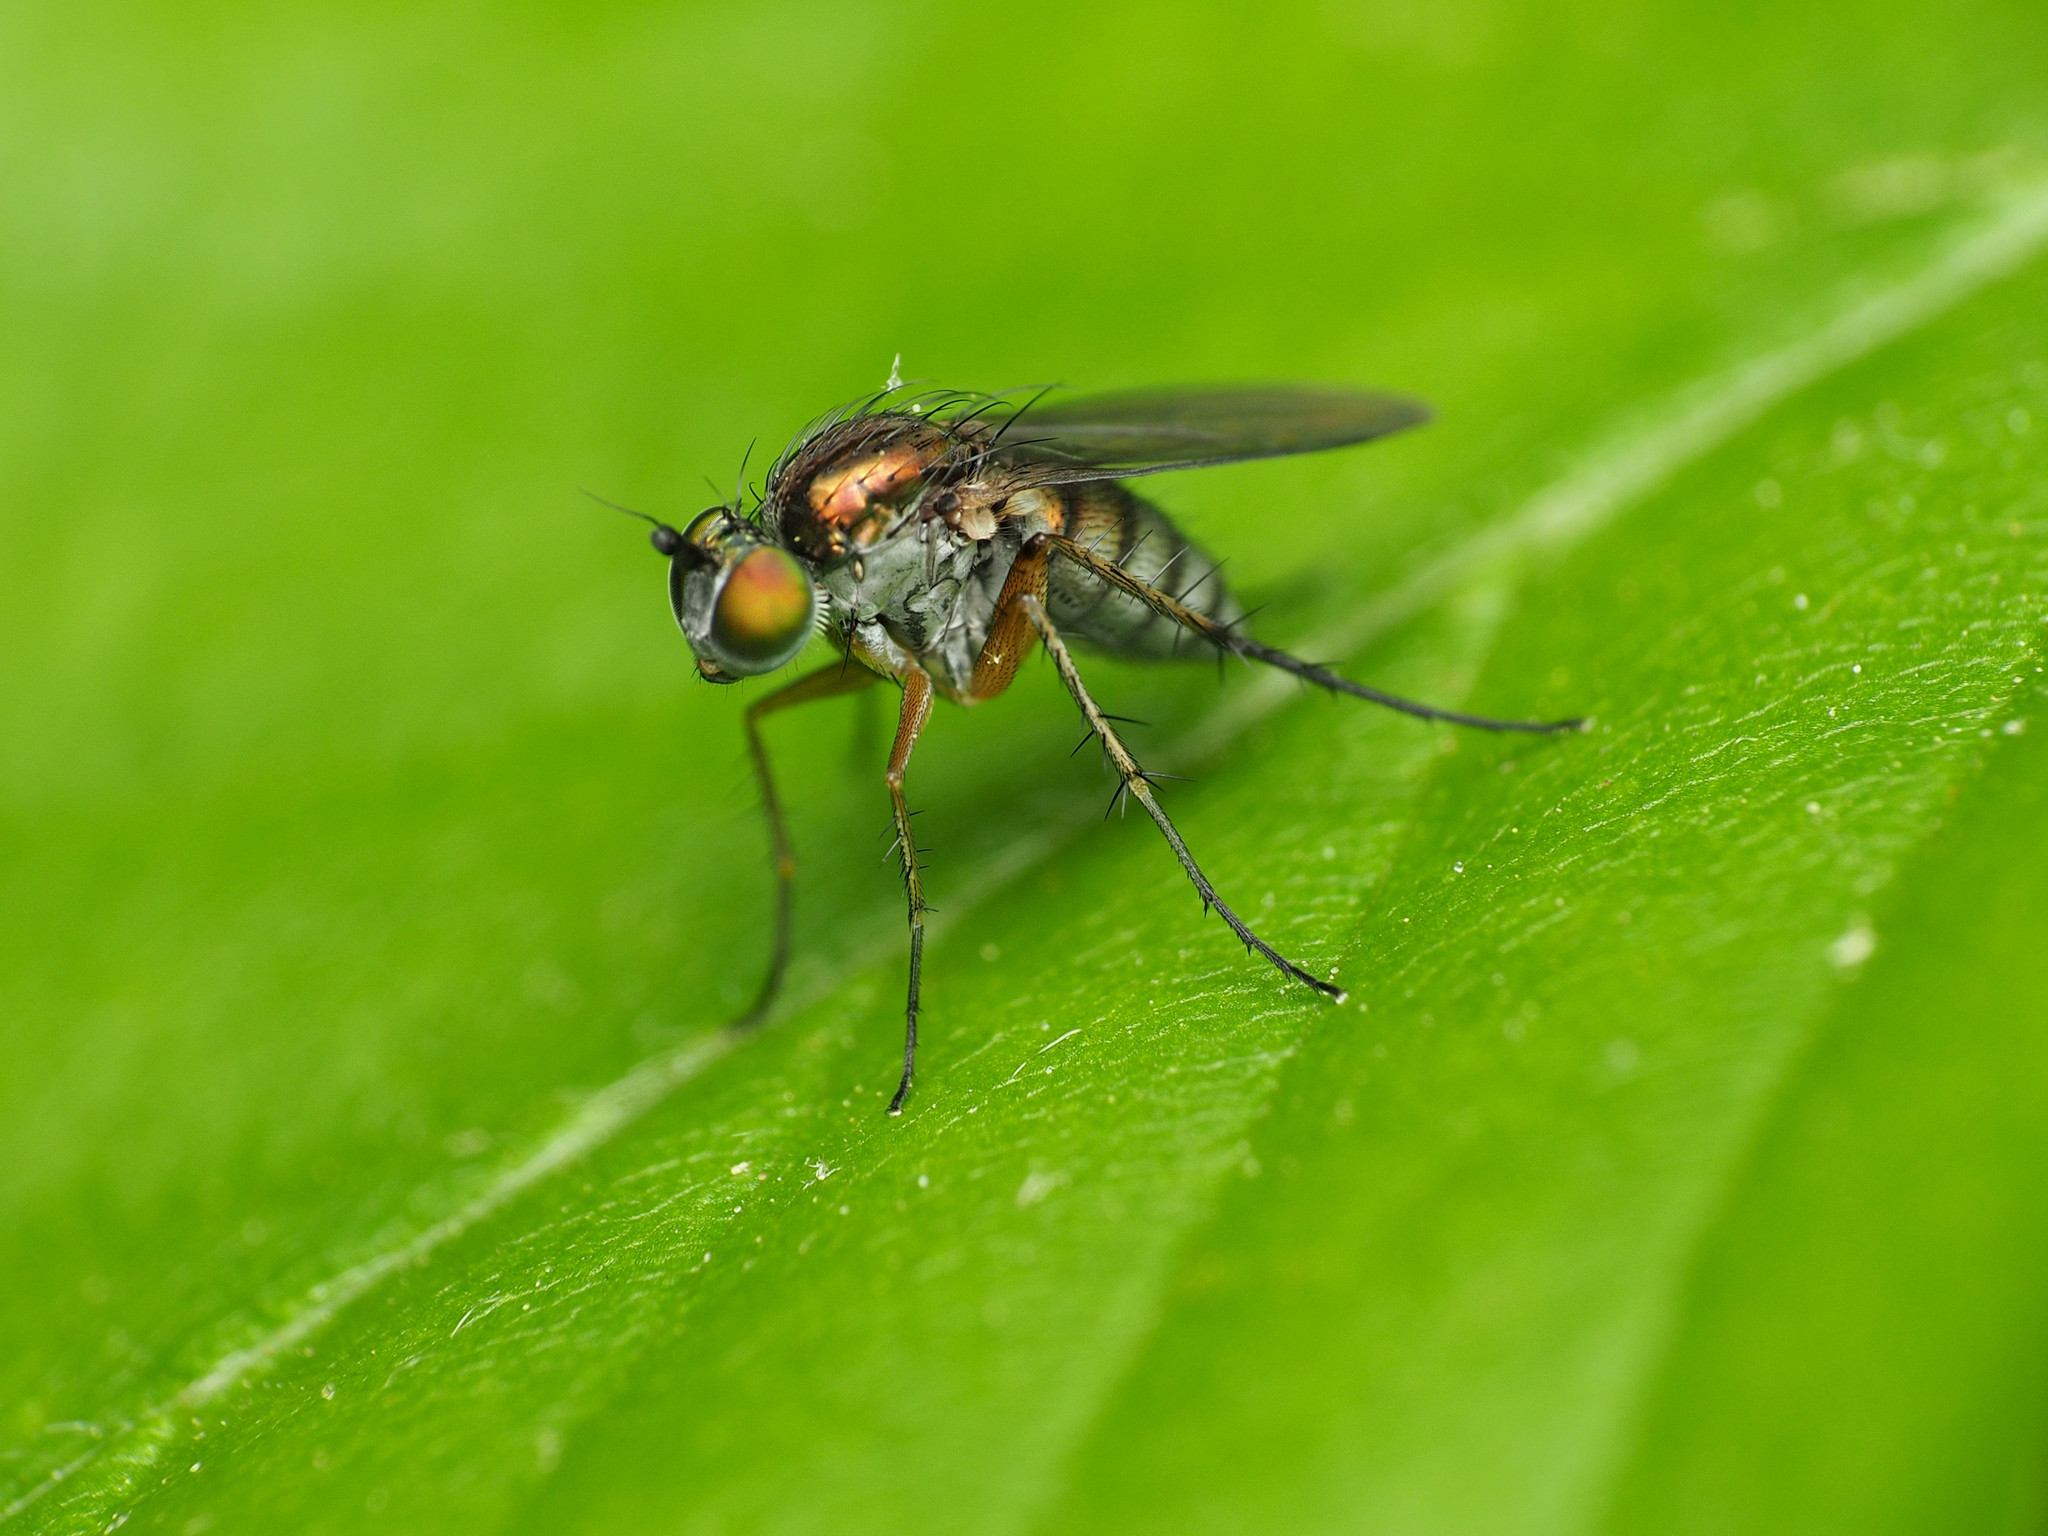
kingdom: Animalia
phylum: Arthropoda
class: Insecta
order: Diptera
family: Dolichopodidae
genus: Dolichopus
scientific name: Dolichopus comatus
